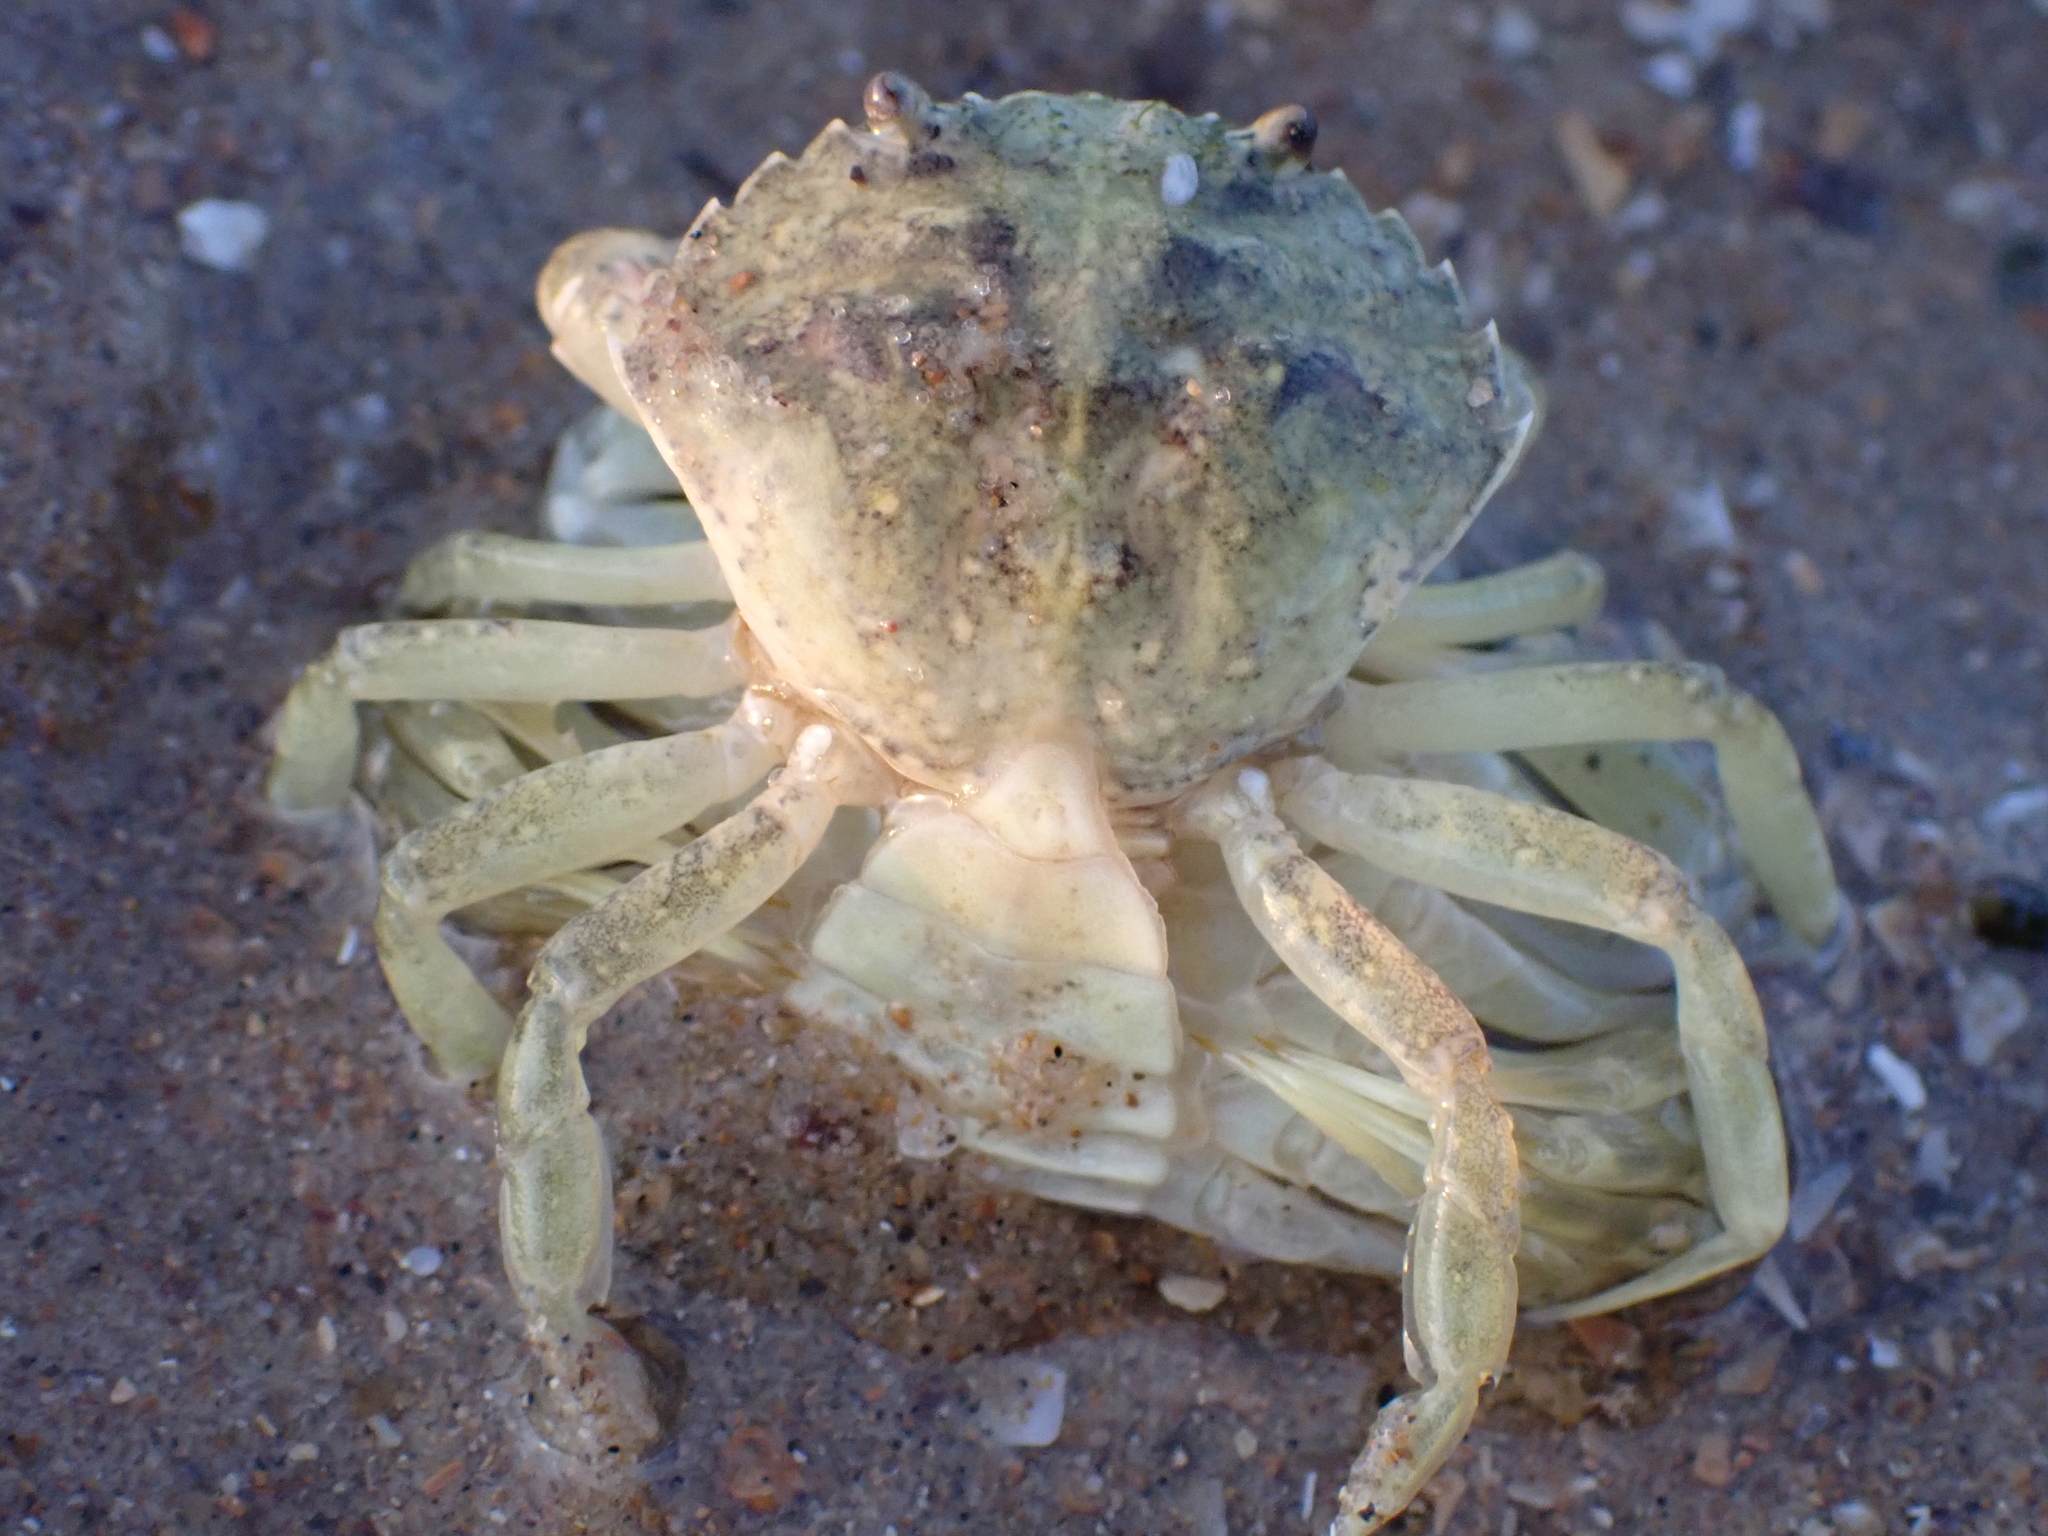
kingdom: Animalia
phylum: Arthropoda
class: Malacostraca
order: Decapoda
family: Carcinidae
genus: Carcinus
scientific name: Carcinus maenas
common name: European green crab
